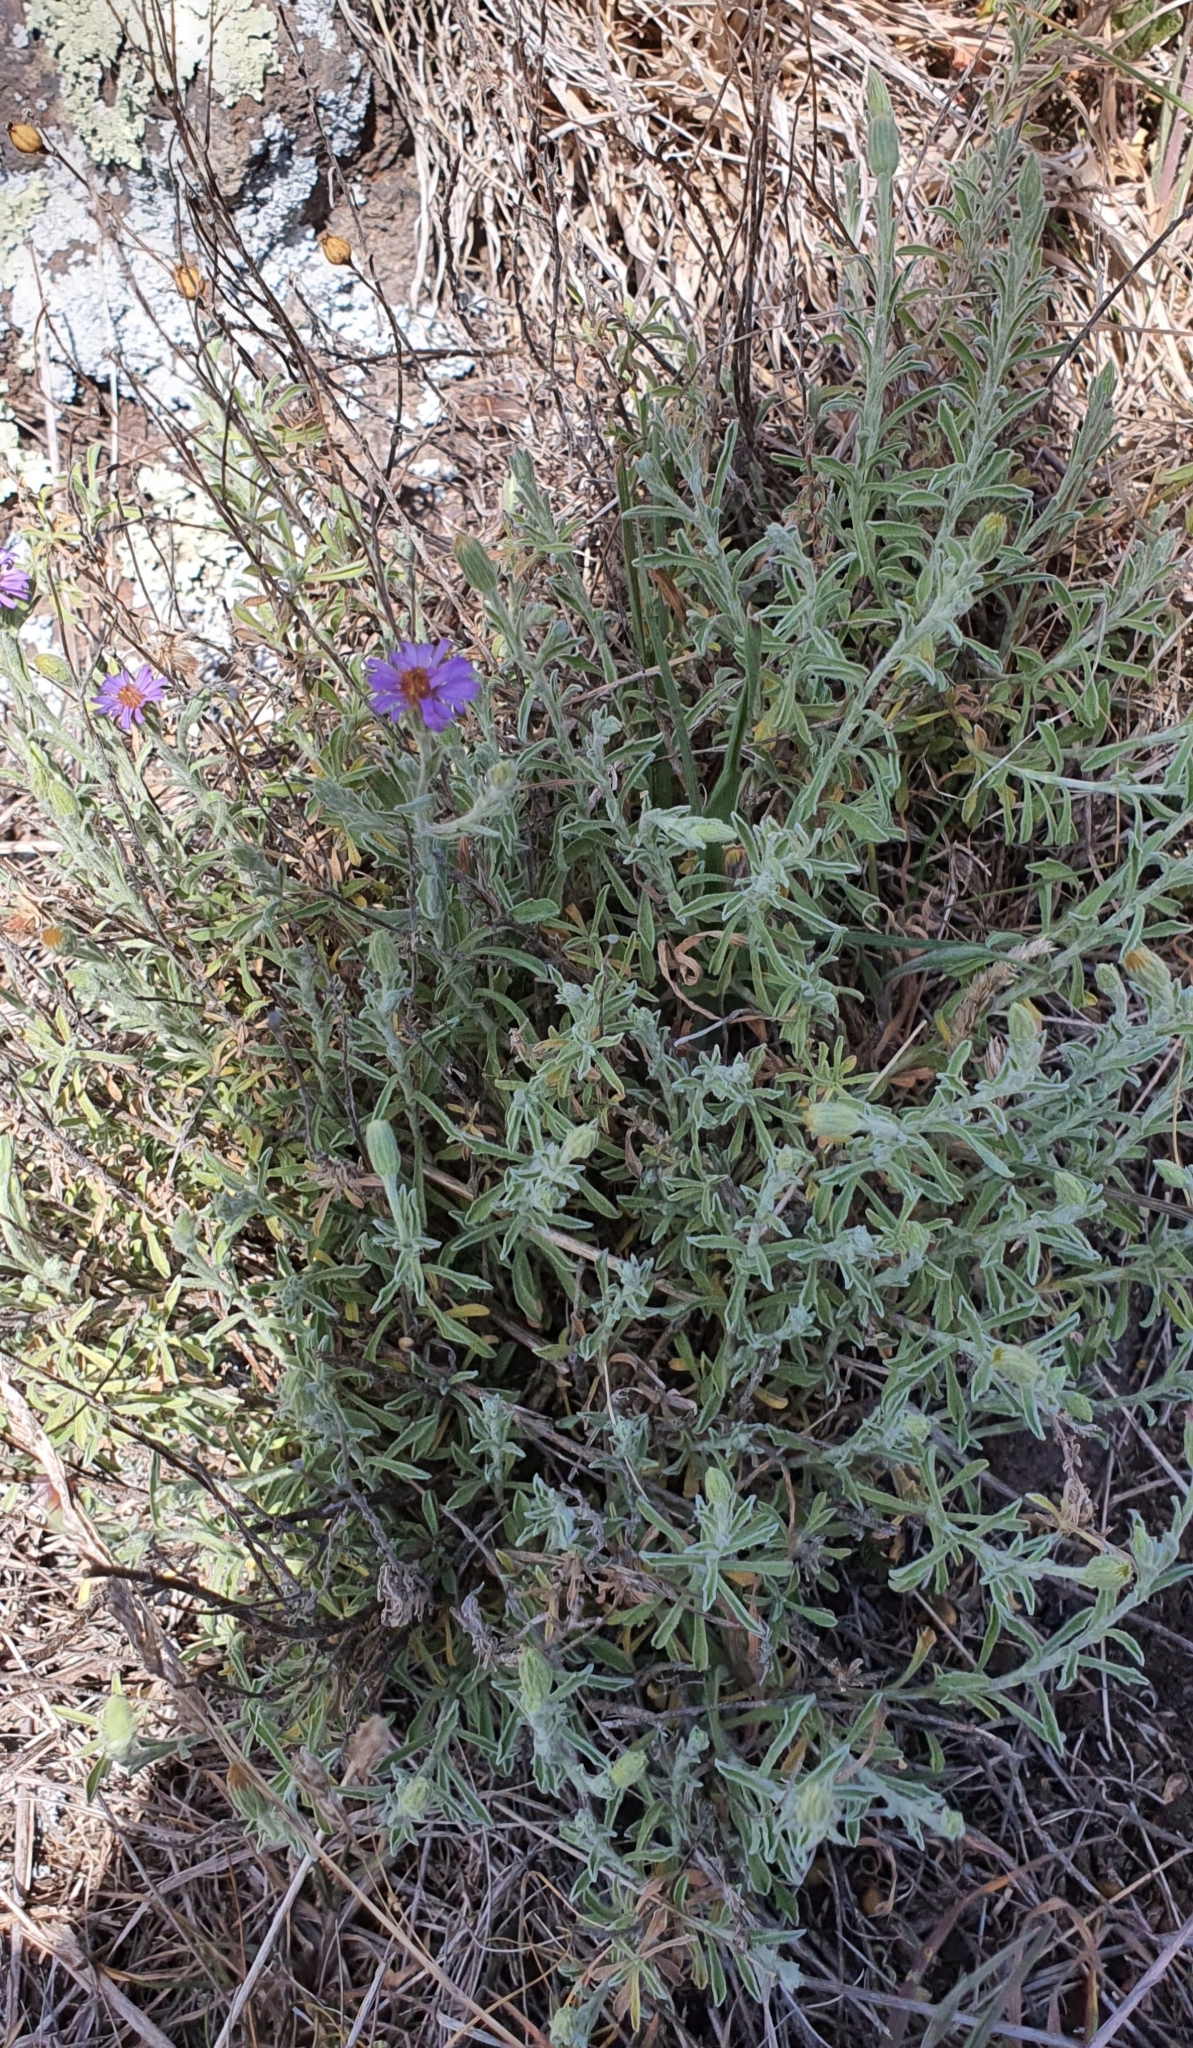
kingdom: Plantae
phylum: Tracheophyta
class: Magnoliopsida
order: Asterales
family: Asteraceae
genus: Vittadinia
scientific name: Vittadinia gracilis
